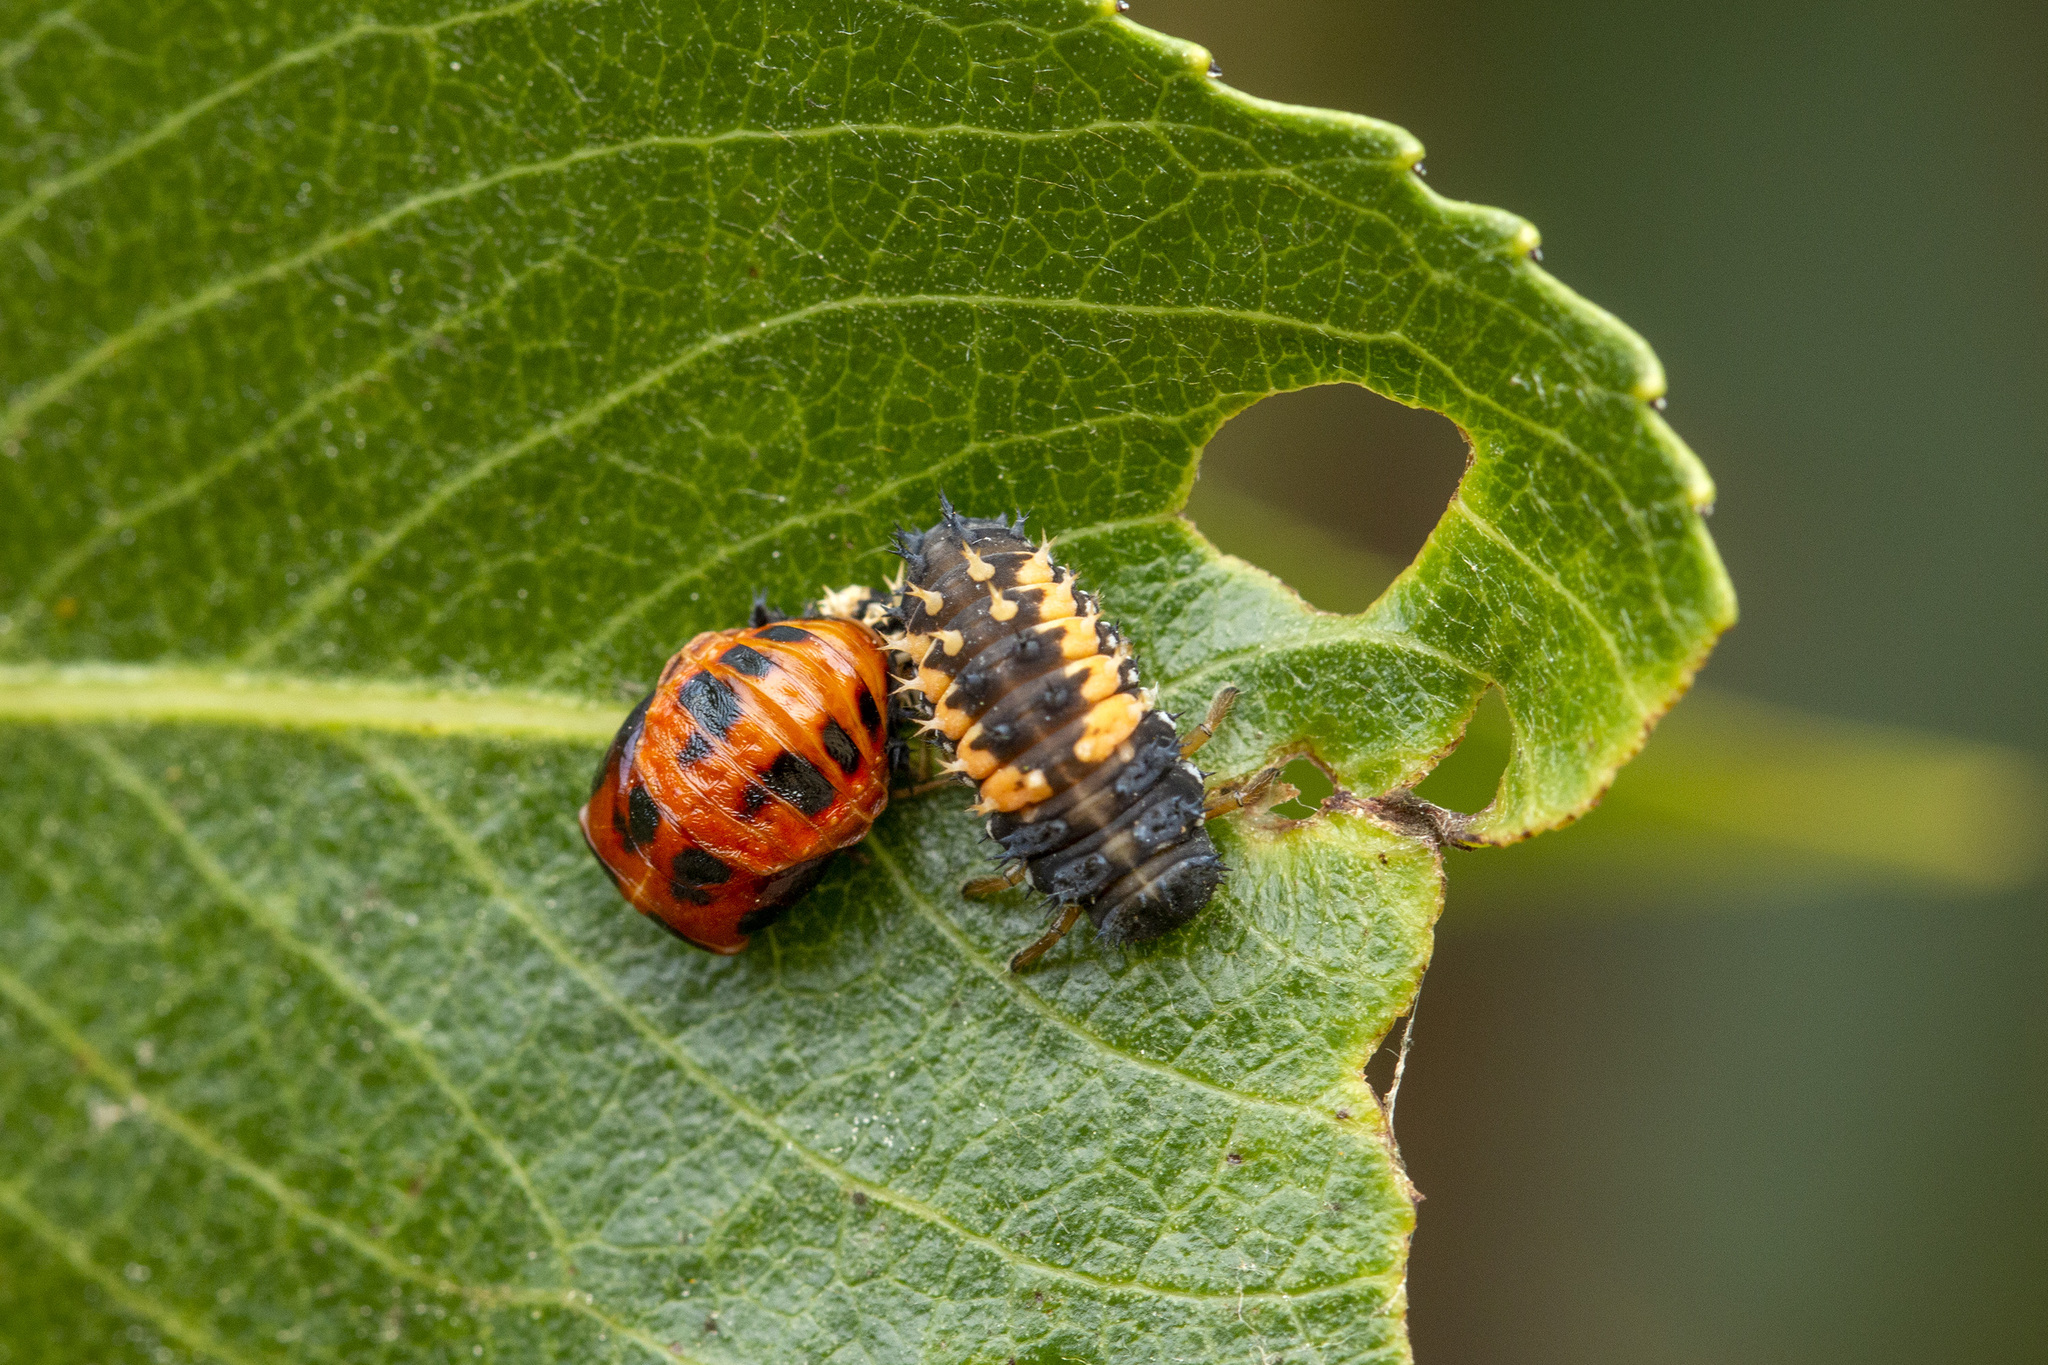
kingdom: Animalia
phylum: Arthropoda
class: Insecta
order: Coleoptera
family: Coccinellidae
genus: Harmonia
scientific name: Harmonia axyridis
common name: Harlequin ladybird
